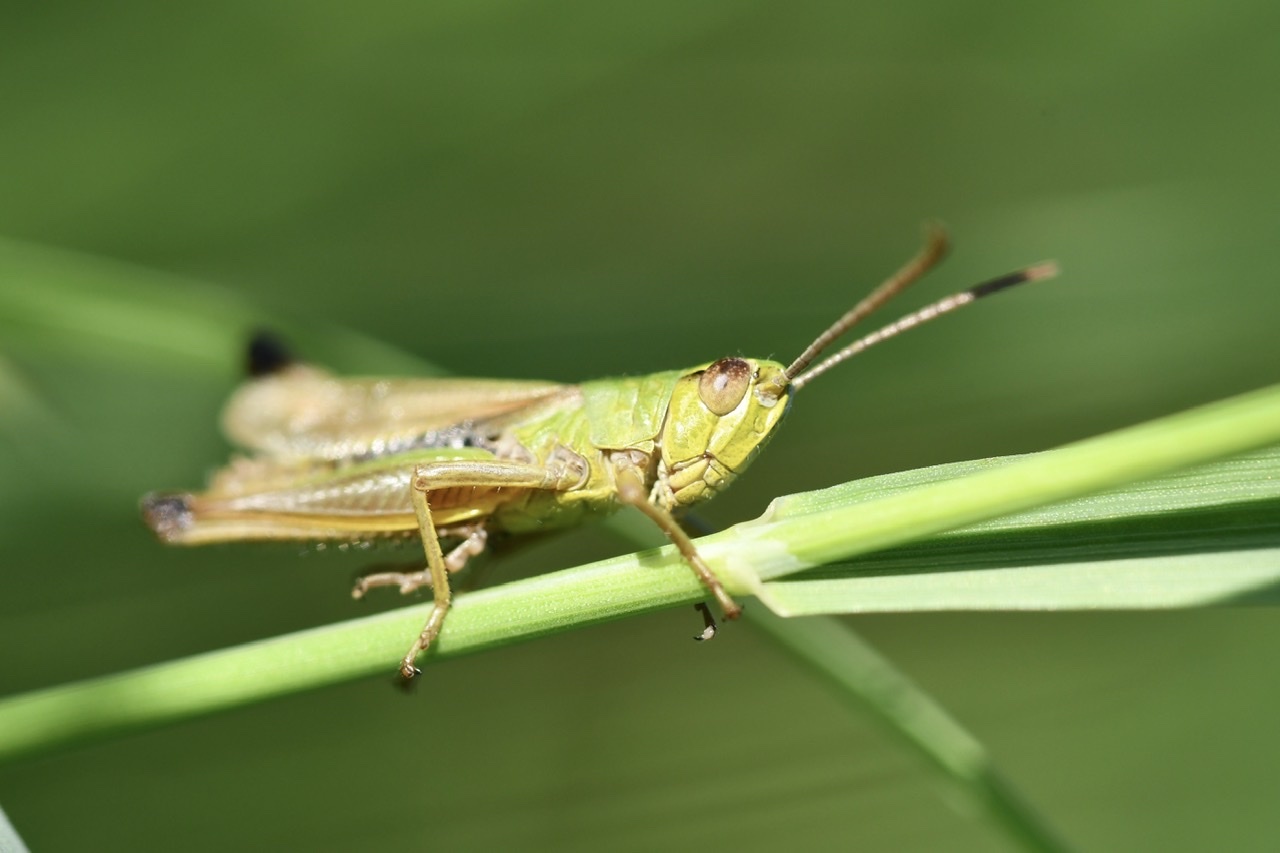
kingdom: Animalia
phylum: Arthropoda
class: Insecta
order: Orthoptera
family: Acrididae
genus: Pseudochorthippus
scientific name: Pseudochorthippus parallelus
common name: Meadow grasshopper
